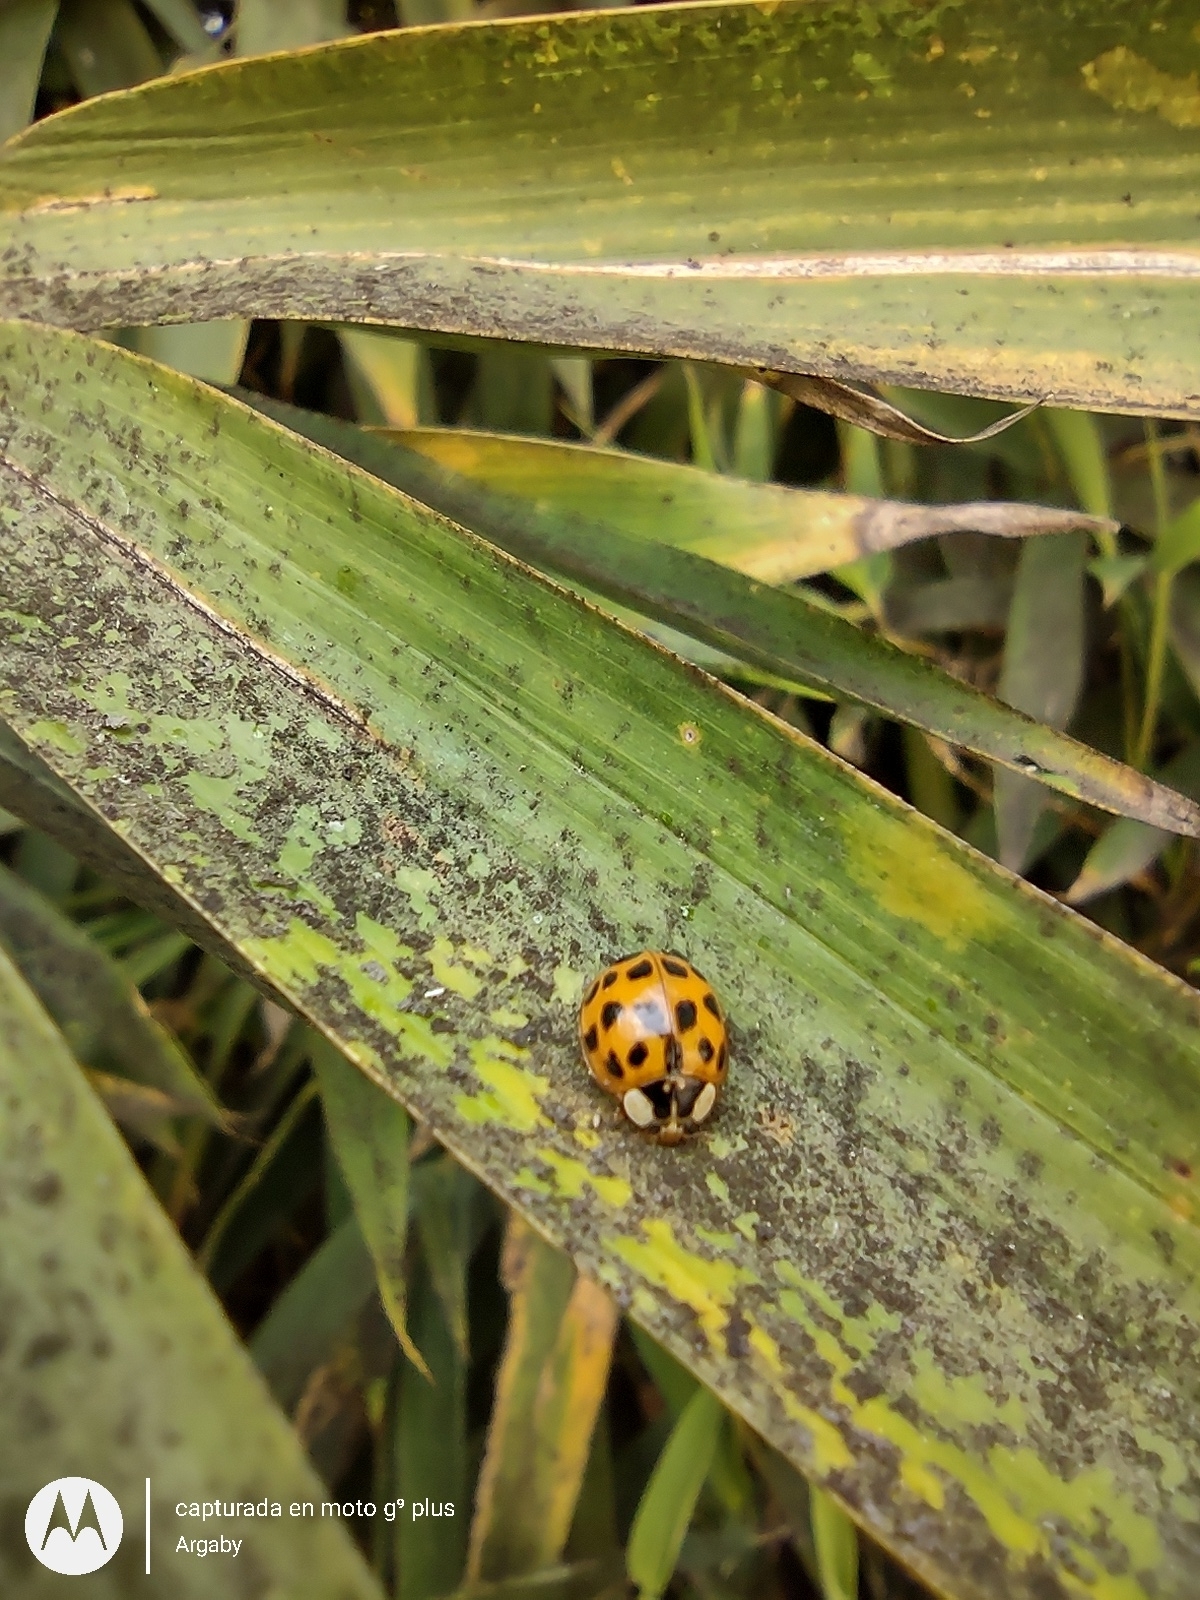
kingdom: Animalia
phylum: Arthropoda
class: Insecta
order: Coleoptera
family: Coccinellidae
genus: Harmonia
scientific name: Harmonia axyridis
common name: Harlequin ladybird
